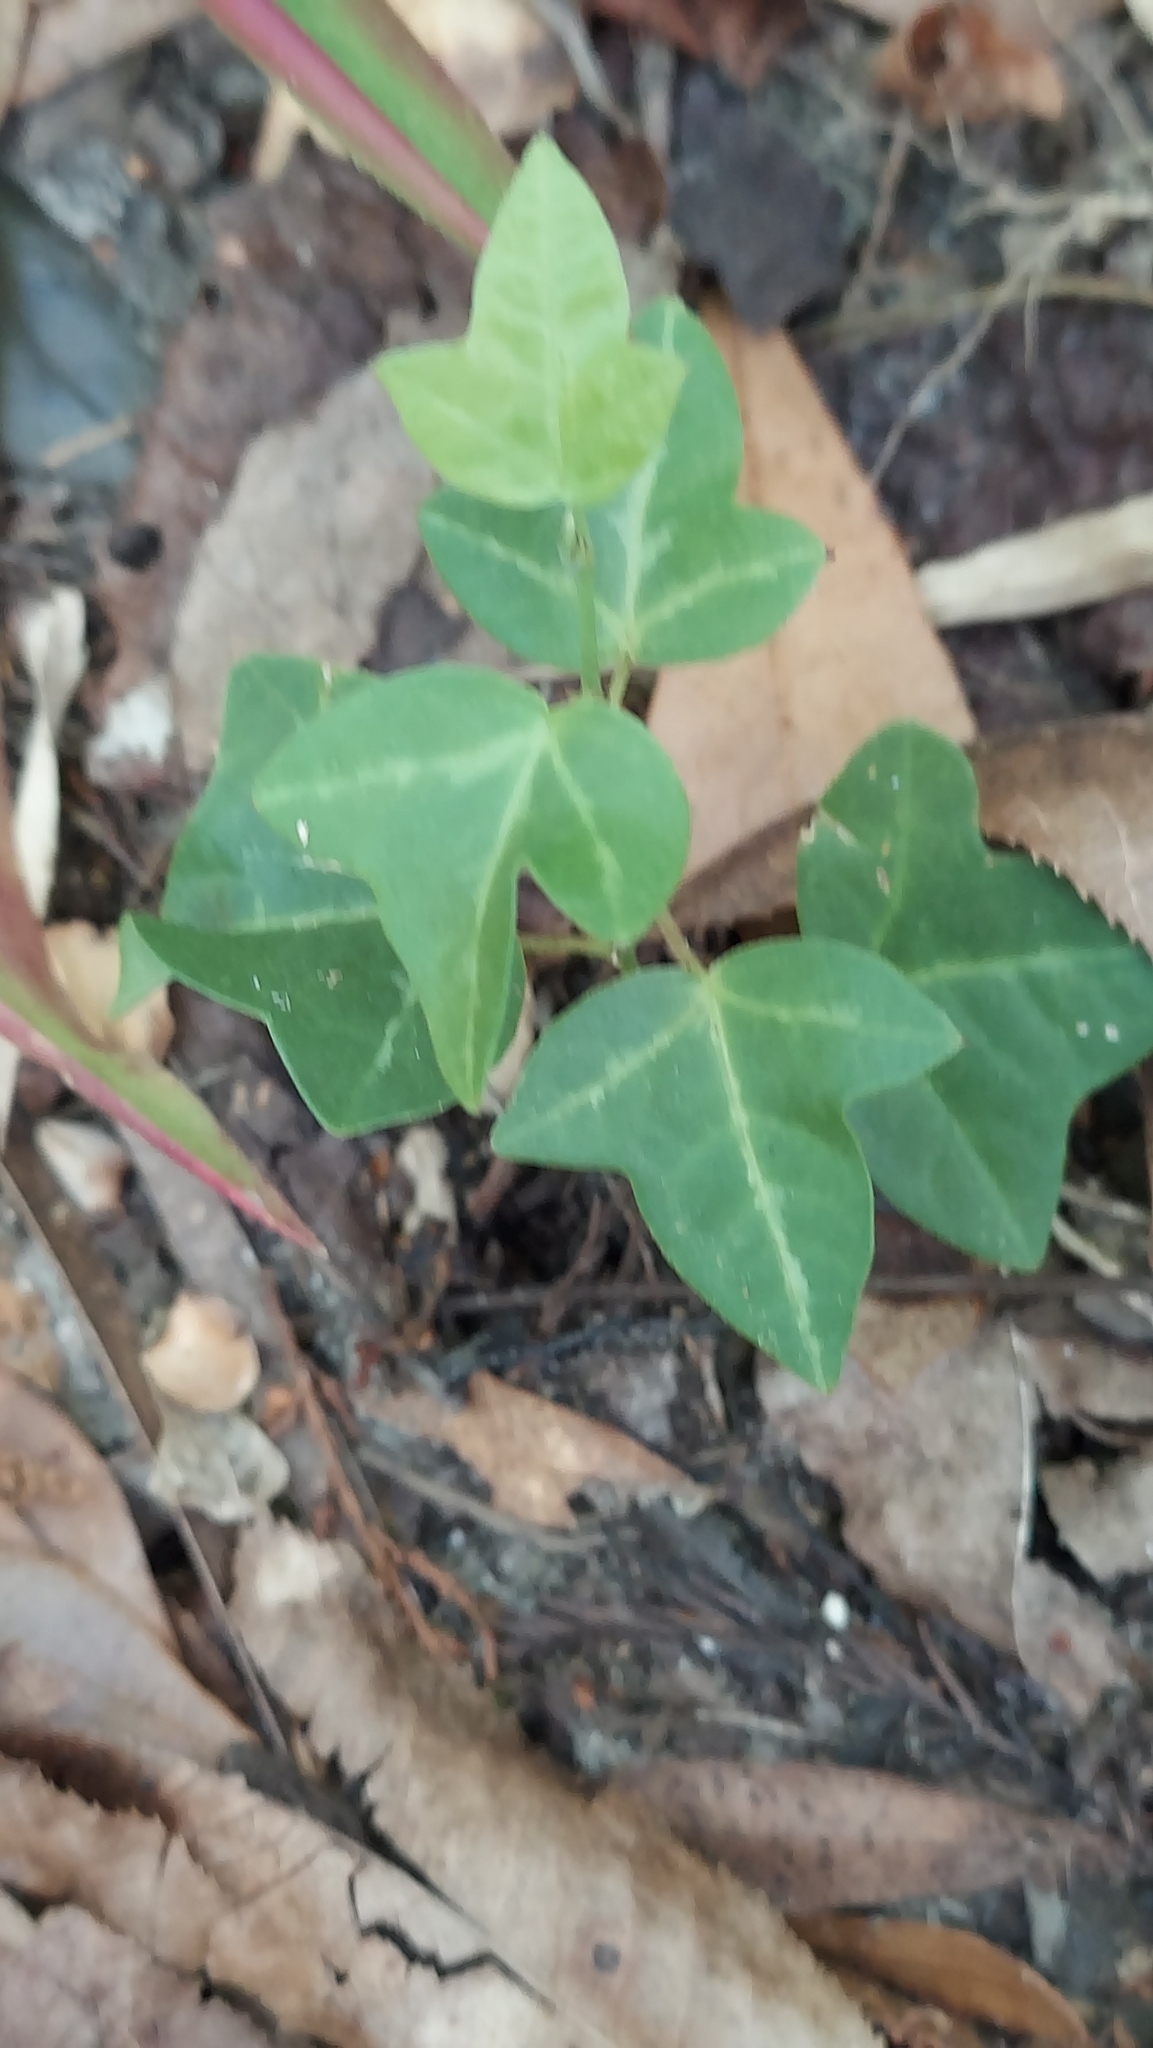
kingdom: Plantae
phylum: Tracheophyta
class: Magnoliopsida
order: Malpighiales
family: Passifloraceae
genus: Passiflora
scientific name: Passiflora pallida
